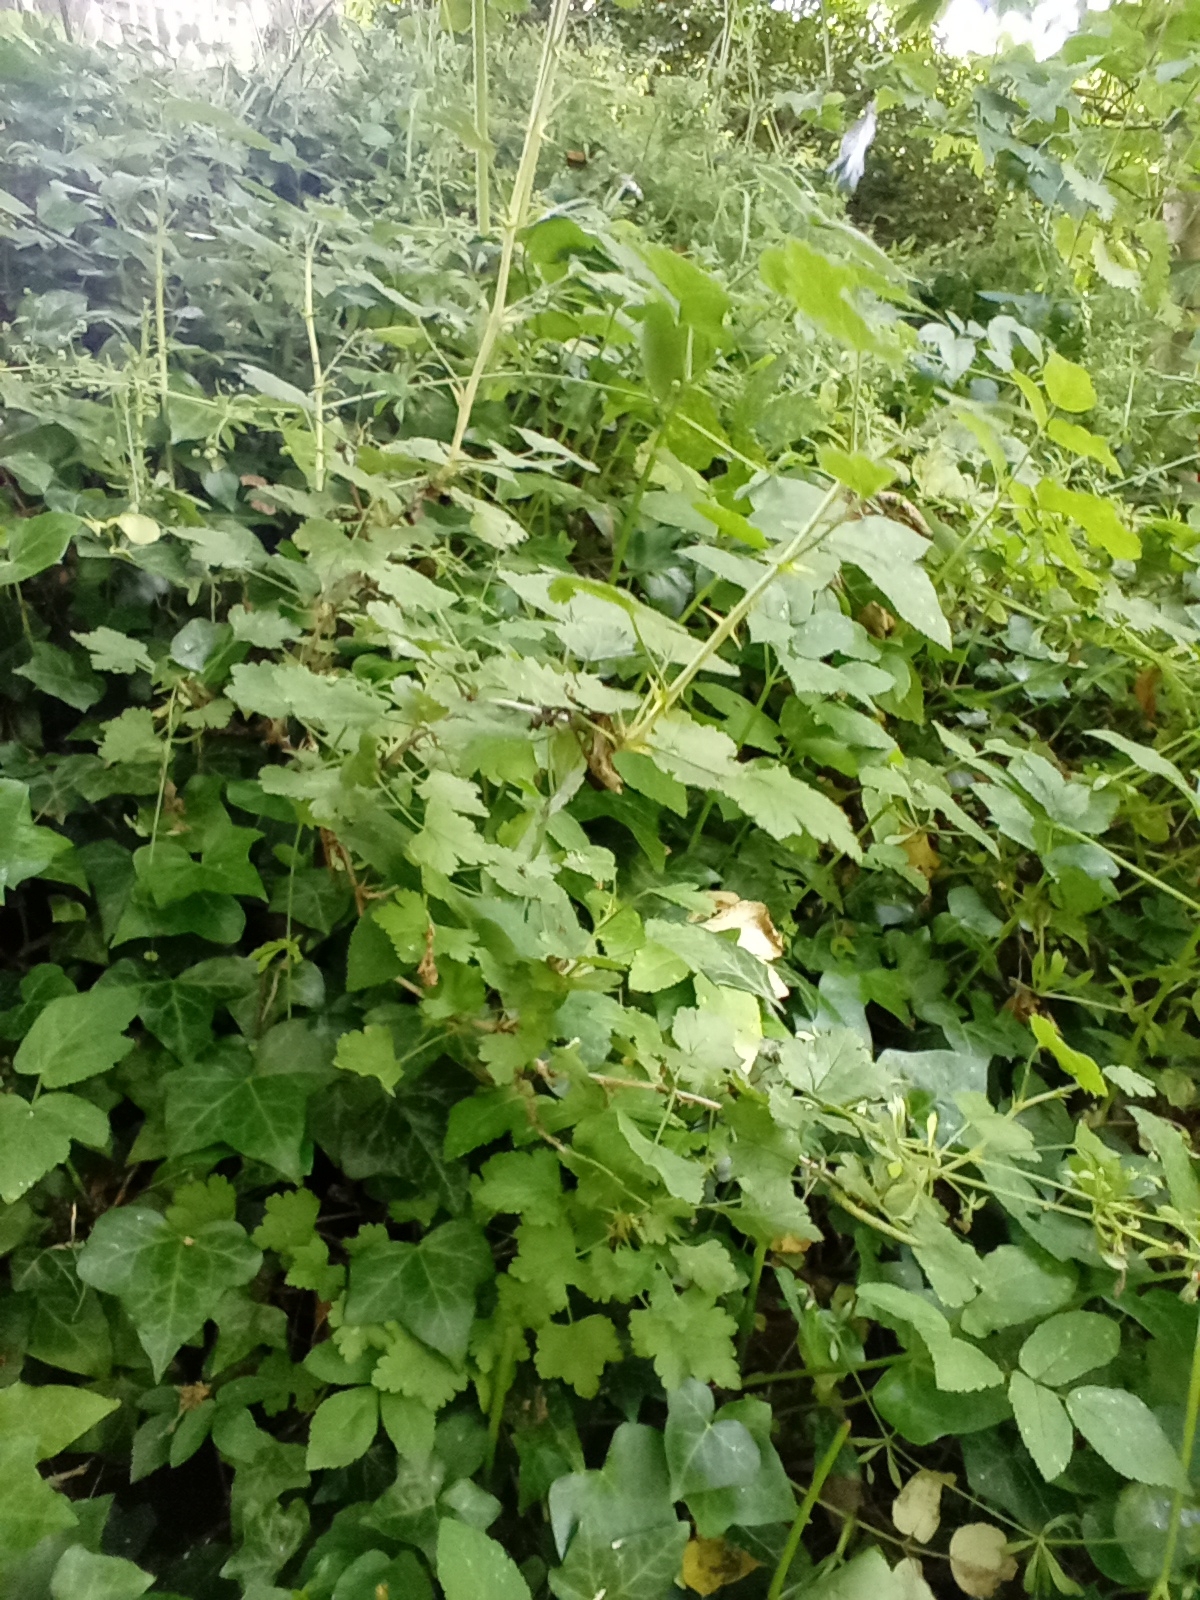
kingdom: Plantae
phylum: Tracheophyta
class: Magnoliopsida
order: Saxifragales
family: Grossulariaceae
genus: Ribes
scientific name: Ribes uva-crispa
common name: Gooseberry
